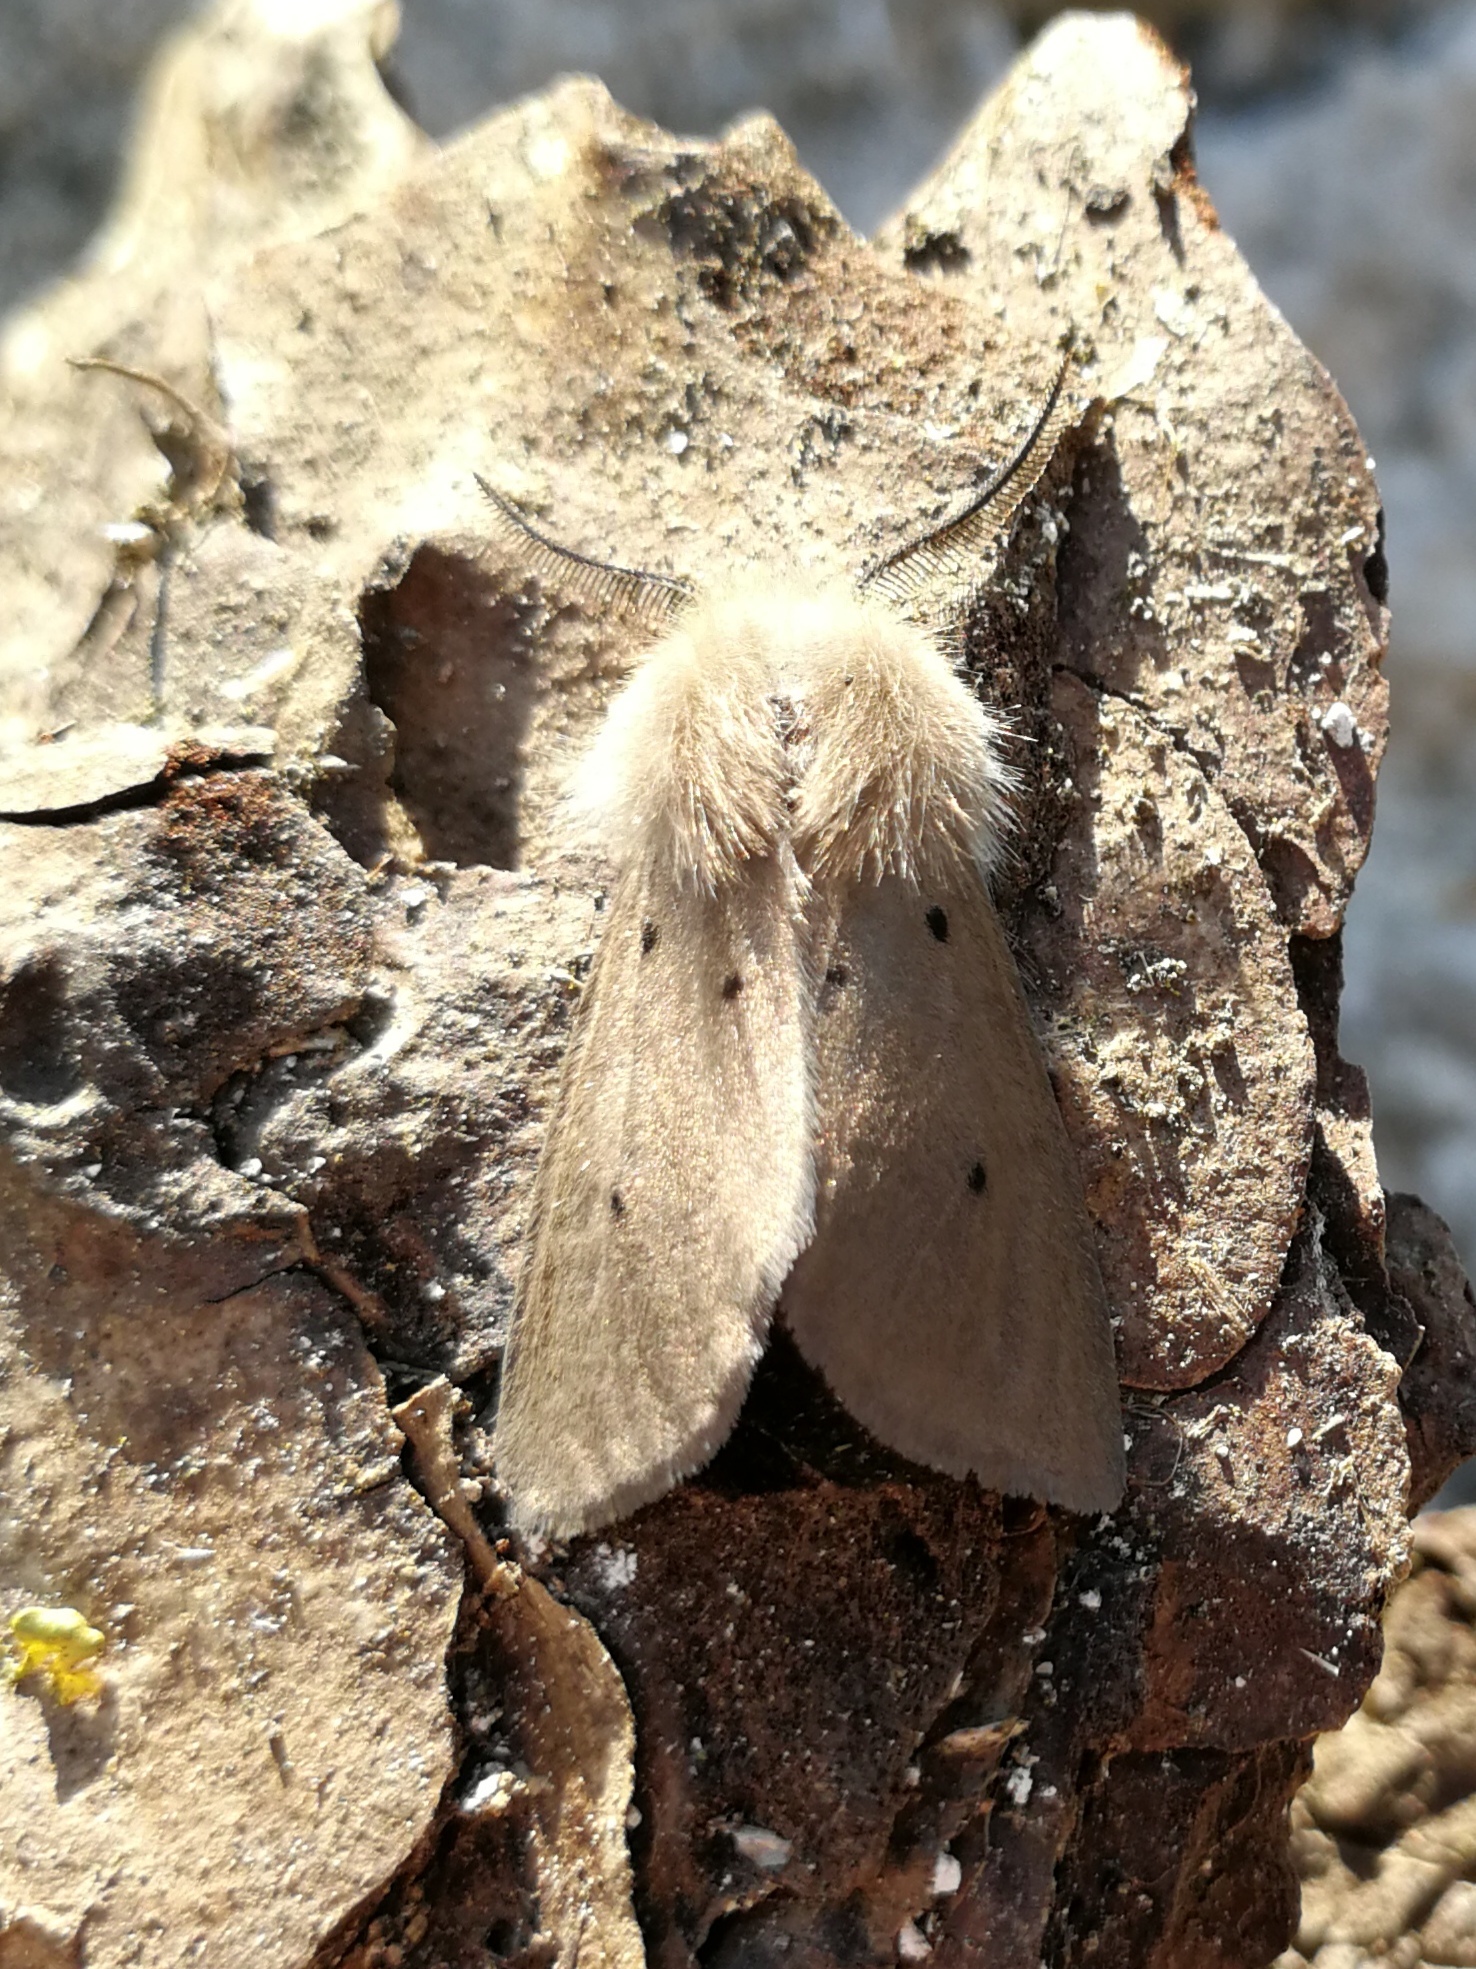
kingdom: Animalia
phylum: Arthropoda
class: Insecta
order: Lepidoptera
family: Erebidae
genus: Diaphora
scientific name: Diaphora mendica
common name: Muslin moth
